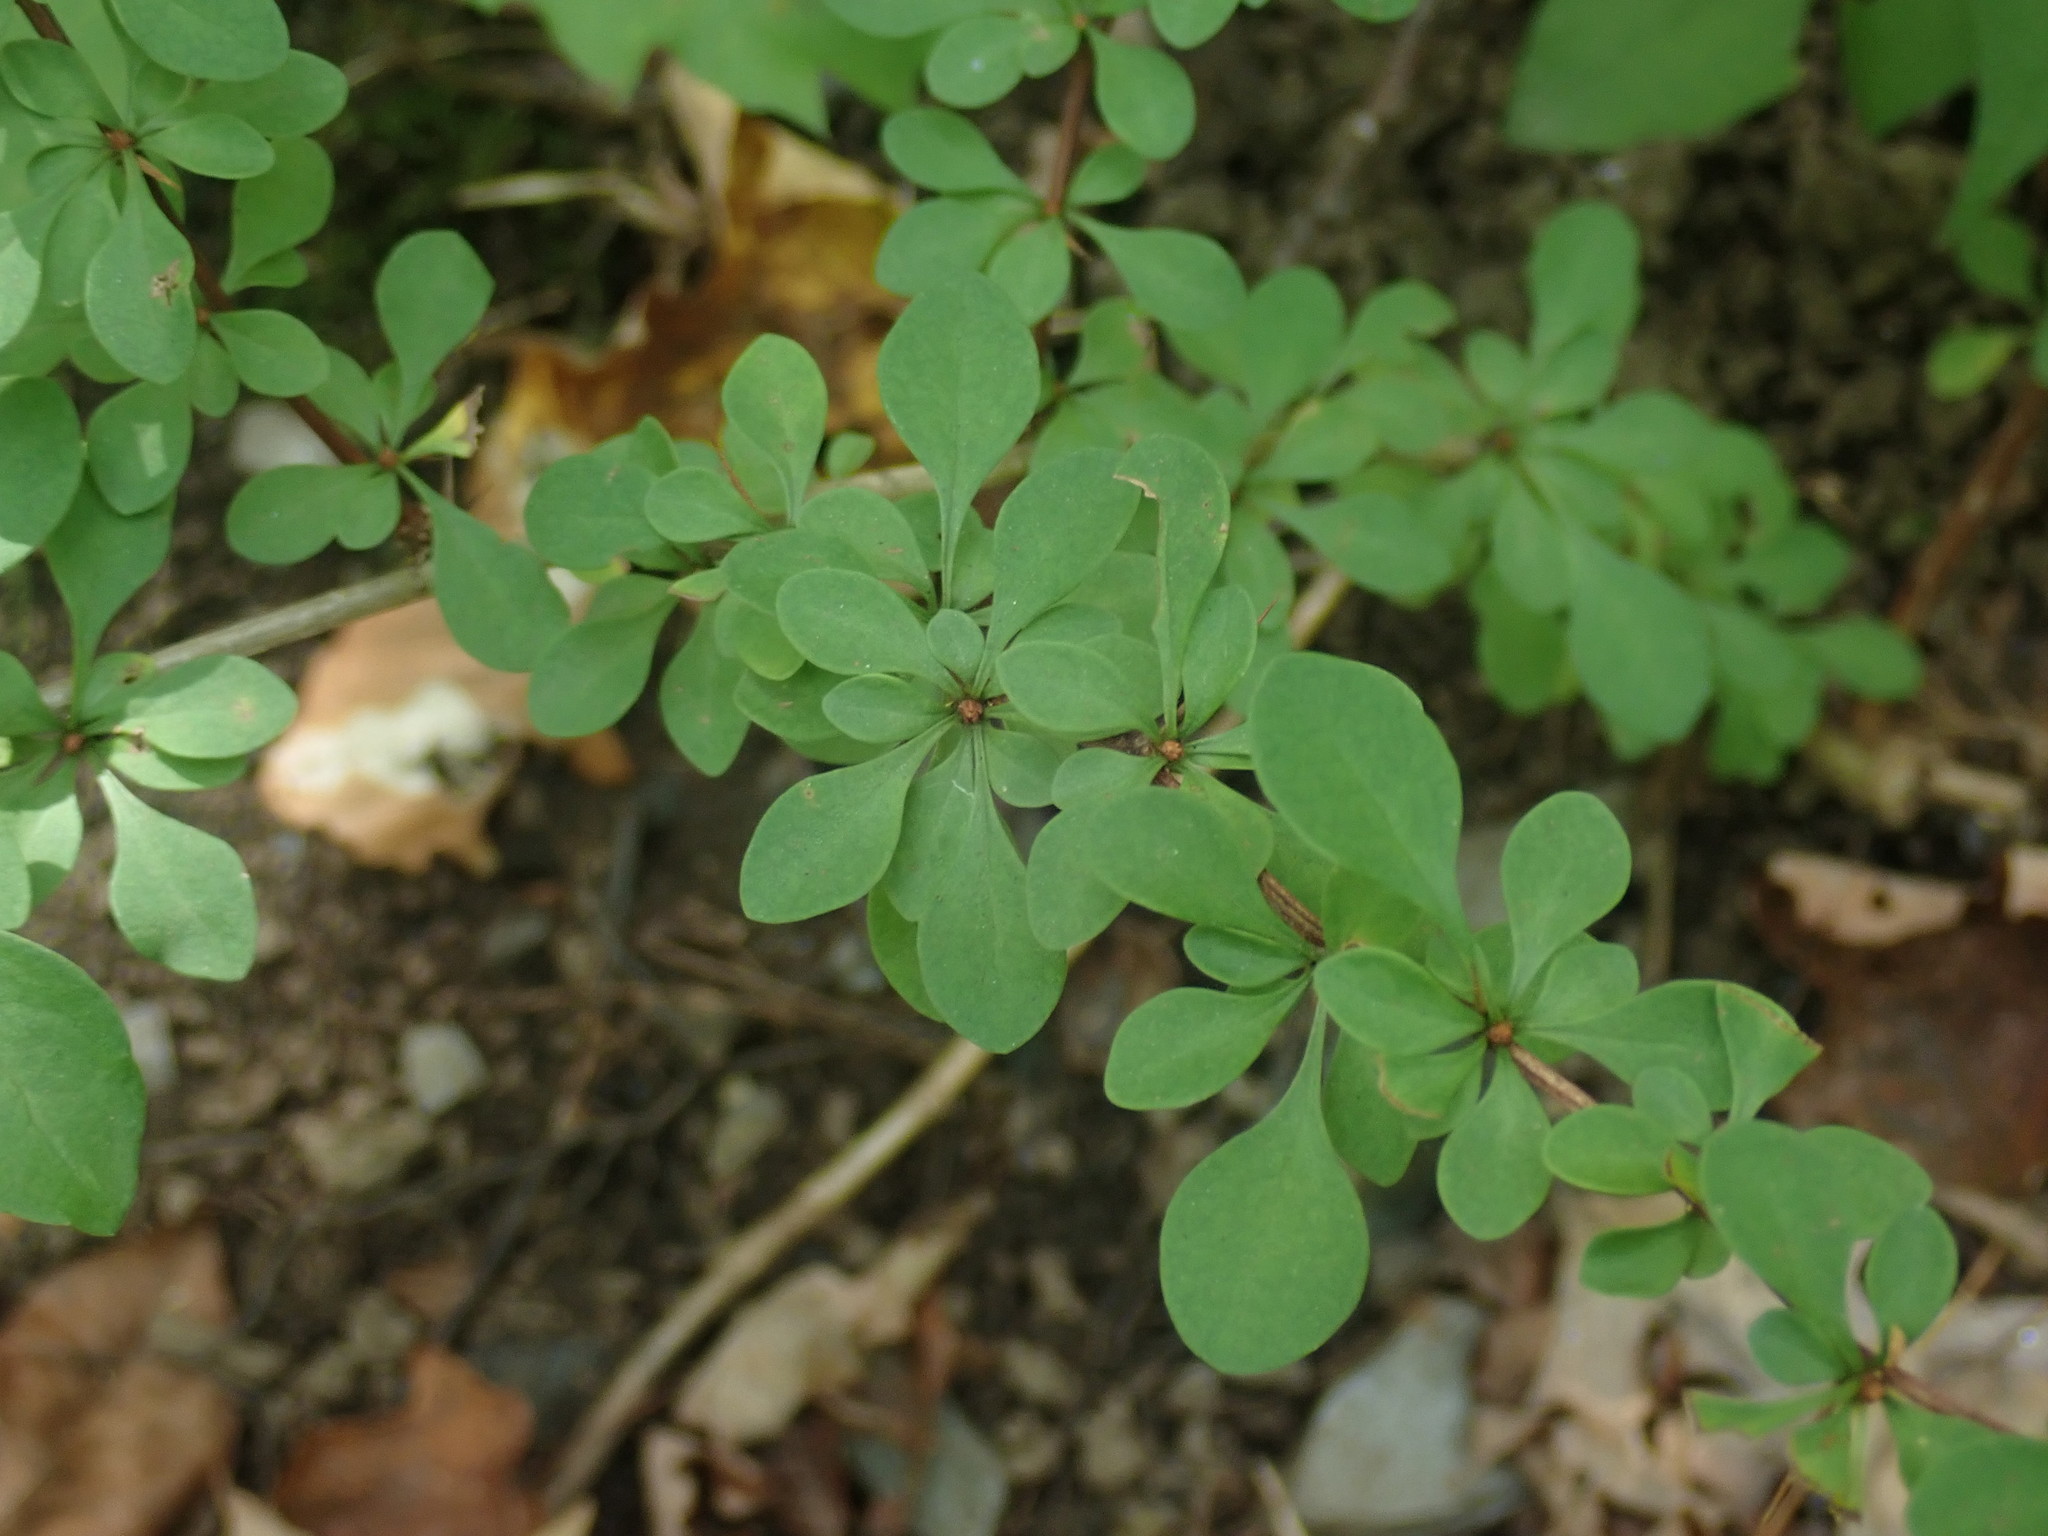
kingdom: Plantae
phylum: Tracheophyta
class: Magnoliopsida
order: Ranunculales
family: Berberidaceae
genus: Berberis
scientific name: Berberis thunbergii
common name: Japanese barberry
